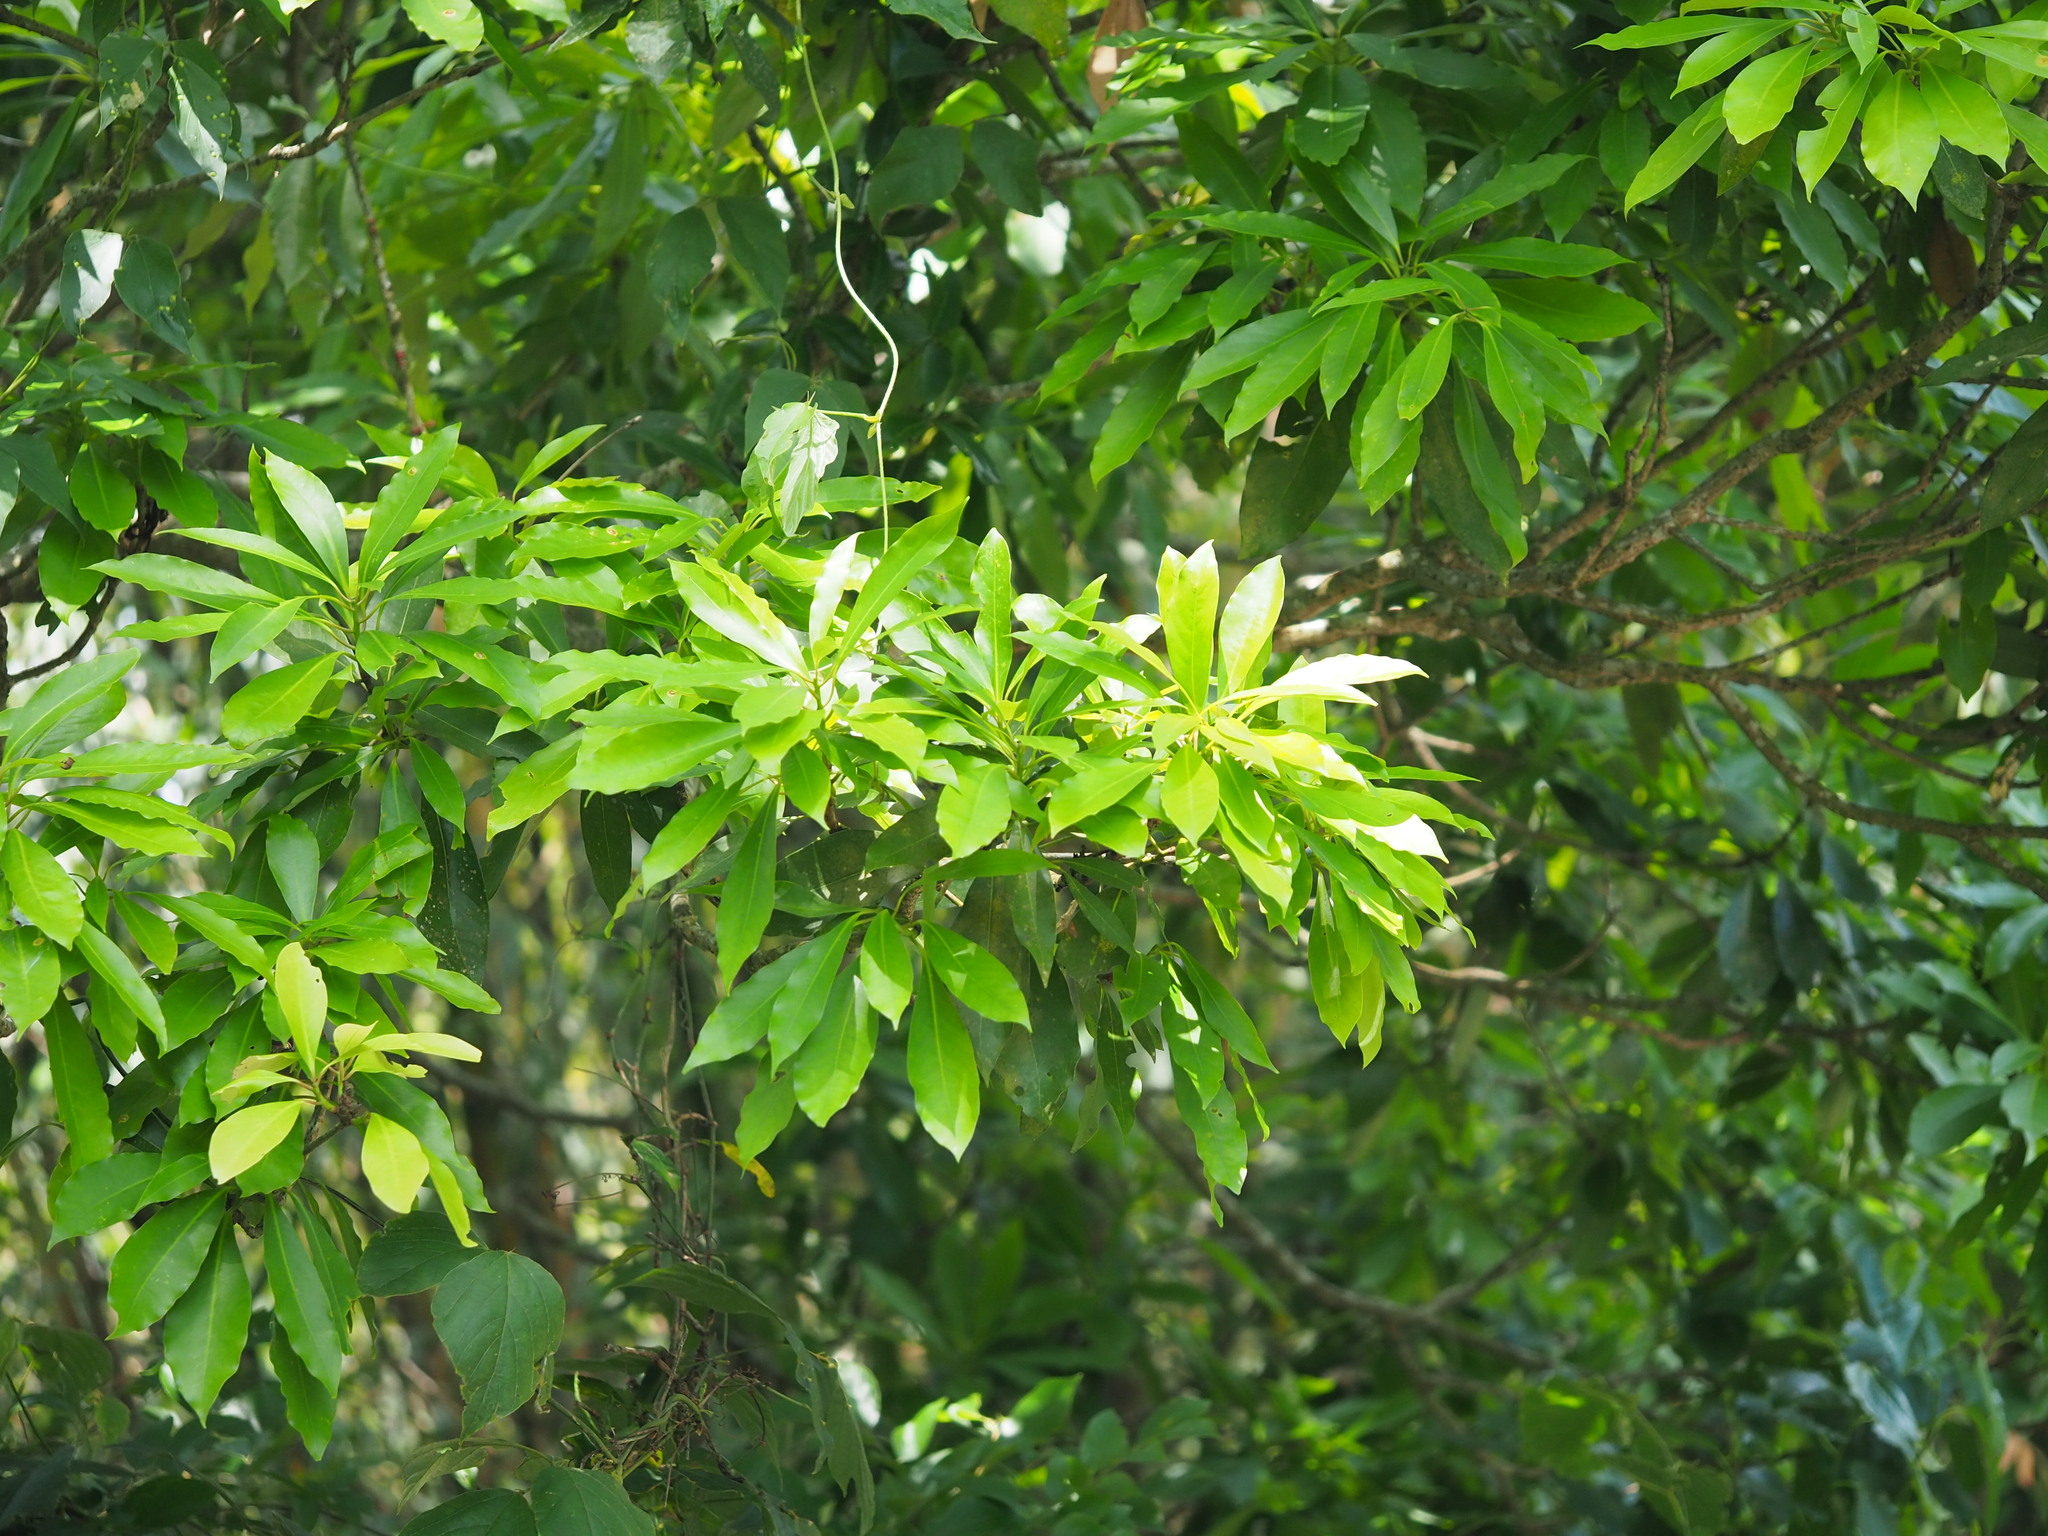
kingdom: Plantae
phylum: Tracheophyta
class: Magnoliopsida
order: Laurales
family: Lauraceae
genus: Machilus
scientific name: Machilus japonica
